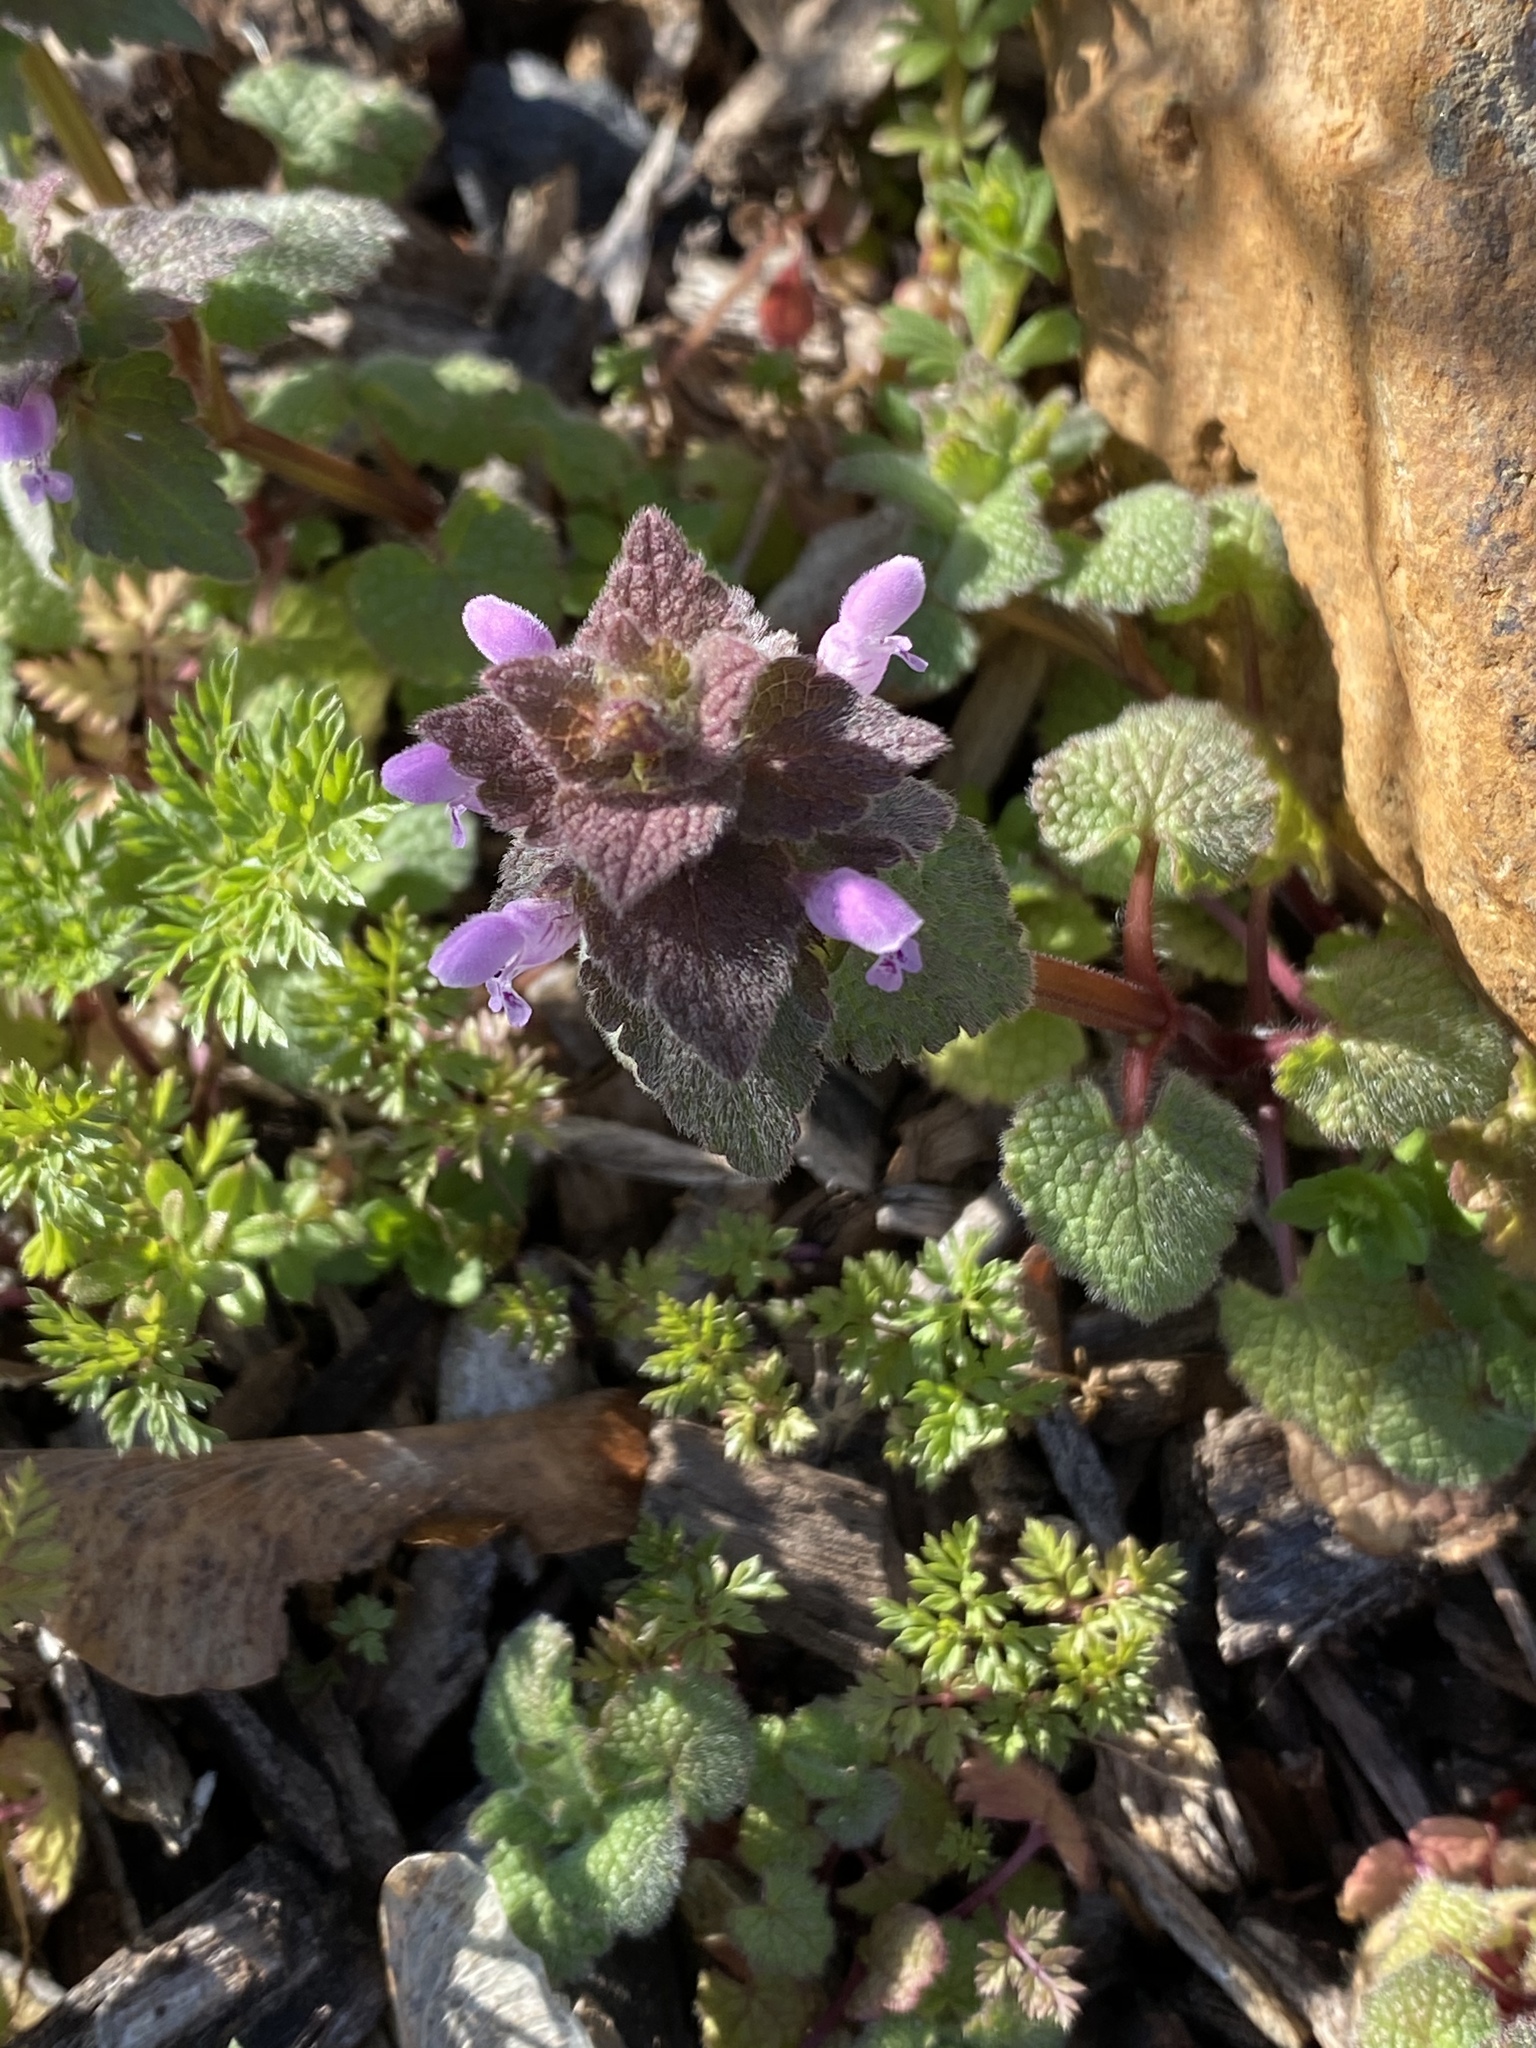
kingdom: Plantae
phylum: Tracheophyta
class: Magnoliopsida
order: Lamiales
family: Lamiaceae
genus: Lamium
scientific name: Lamium purpureum
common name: Red dead-nettle
